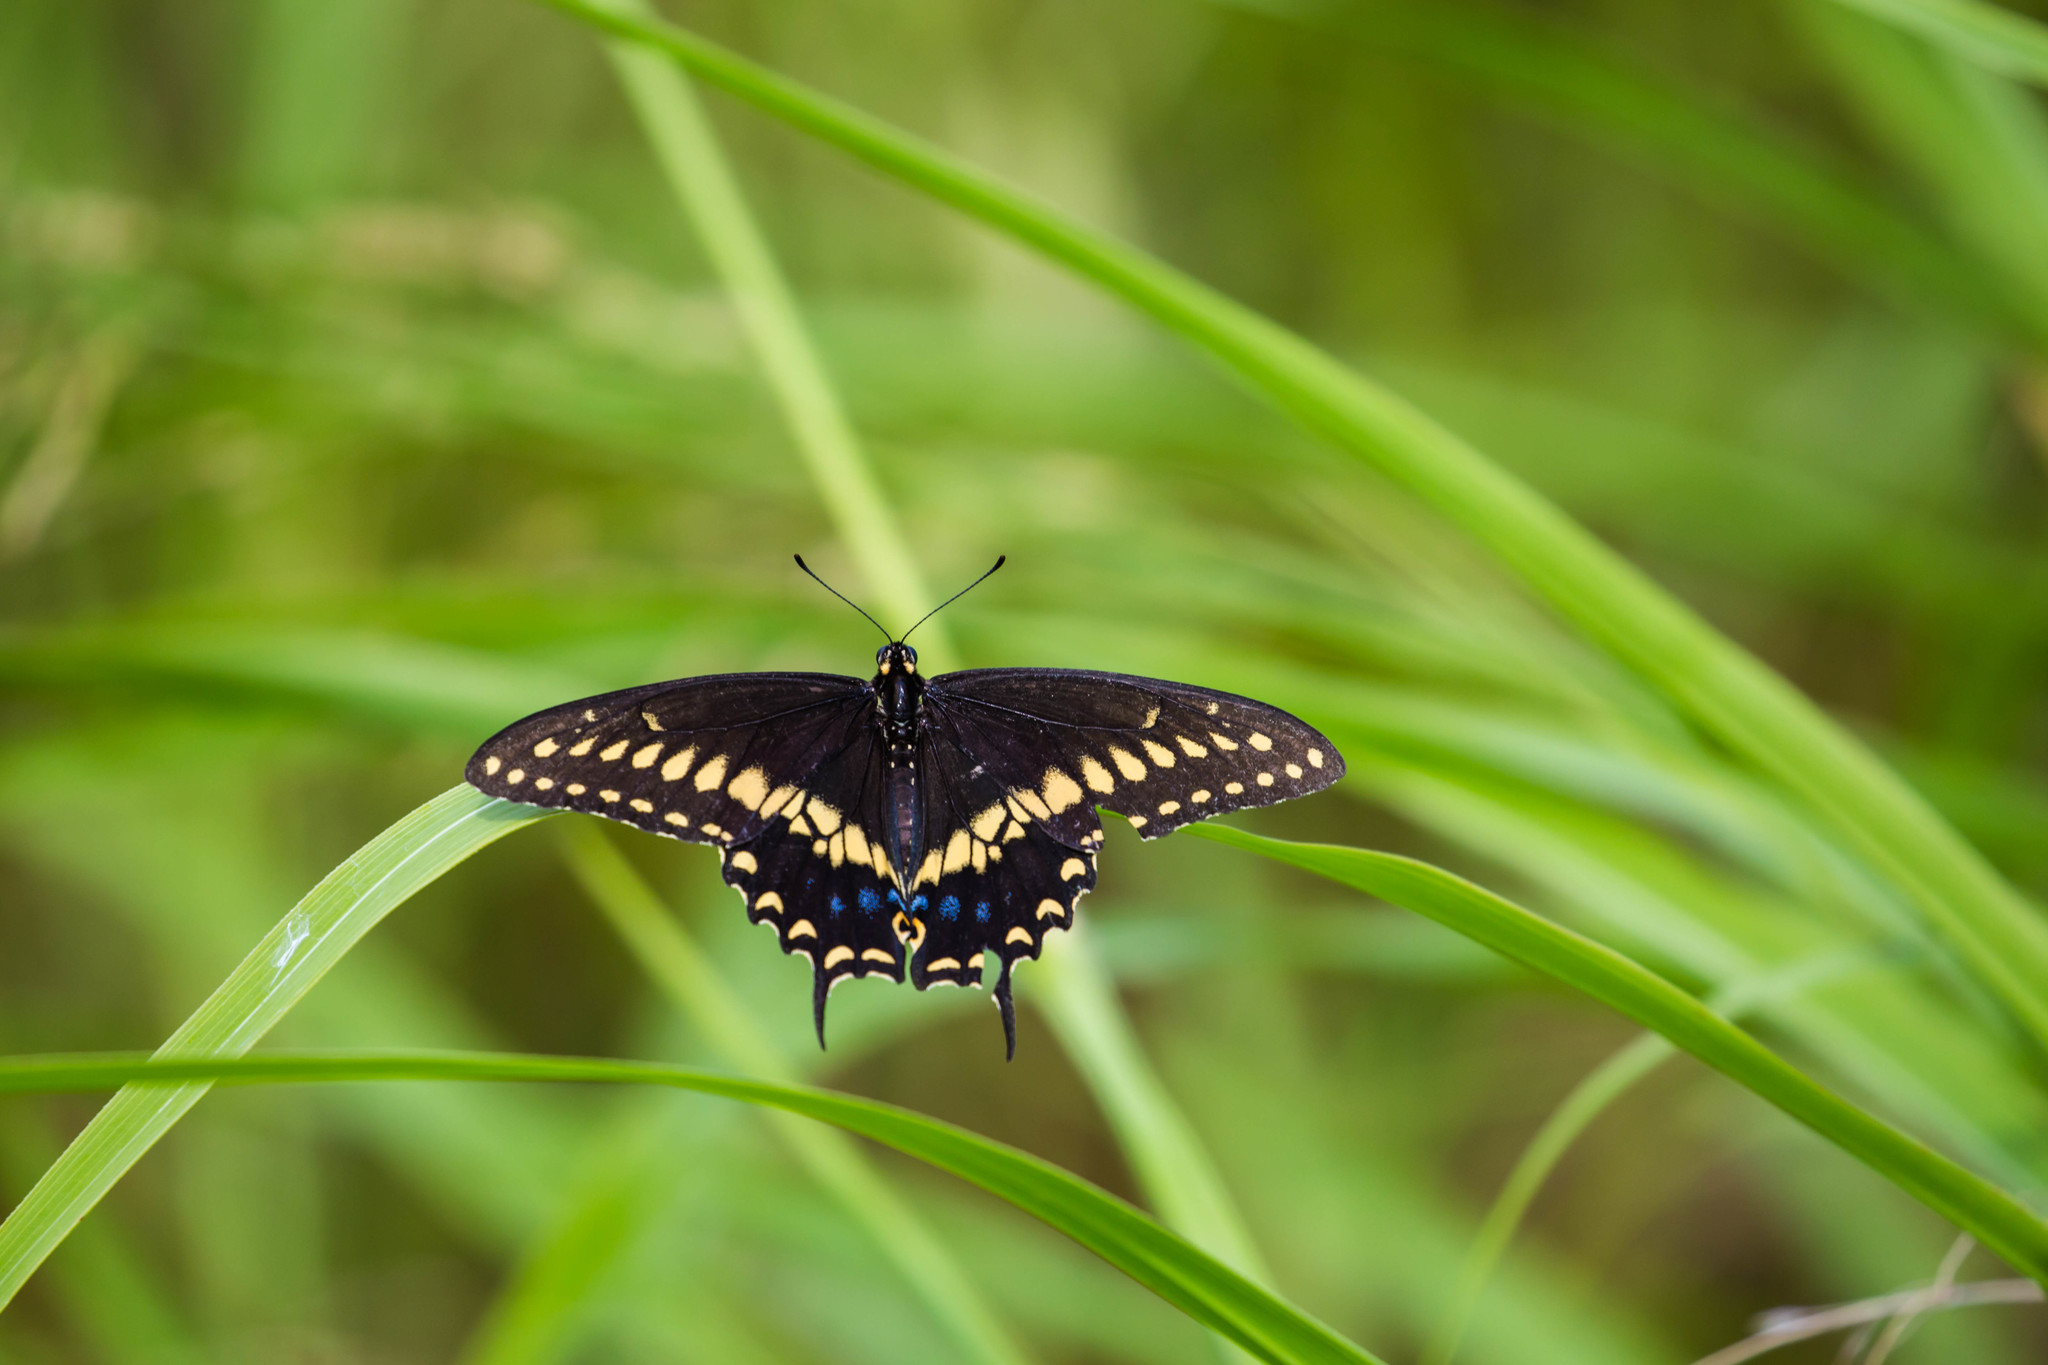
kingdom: Animalia
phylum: Arthropoda
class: Insecta
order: Lepidoptera
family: Papilionidae
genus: Papilio
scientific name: Papilio polyxenes
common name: Black swallowtail
